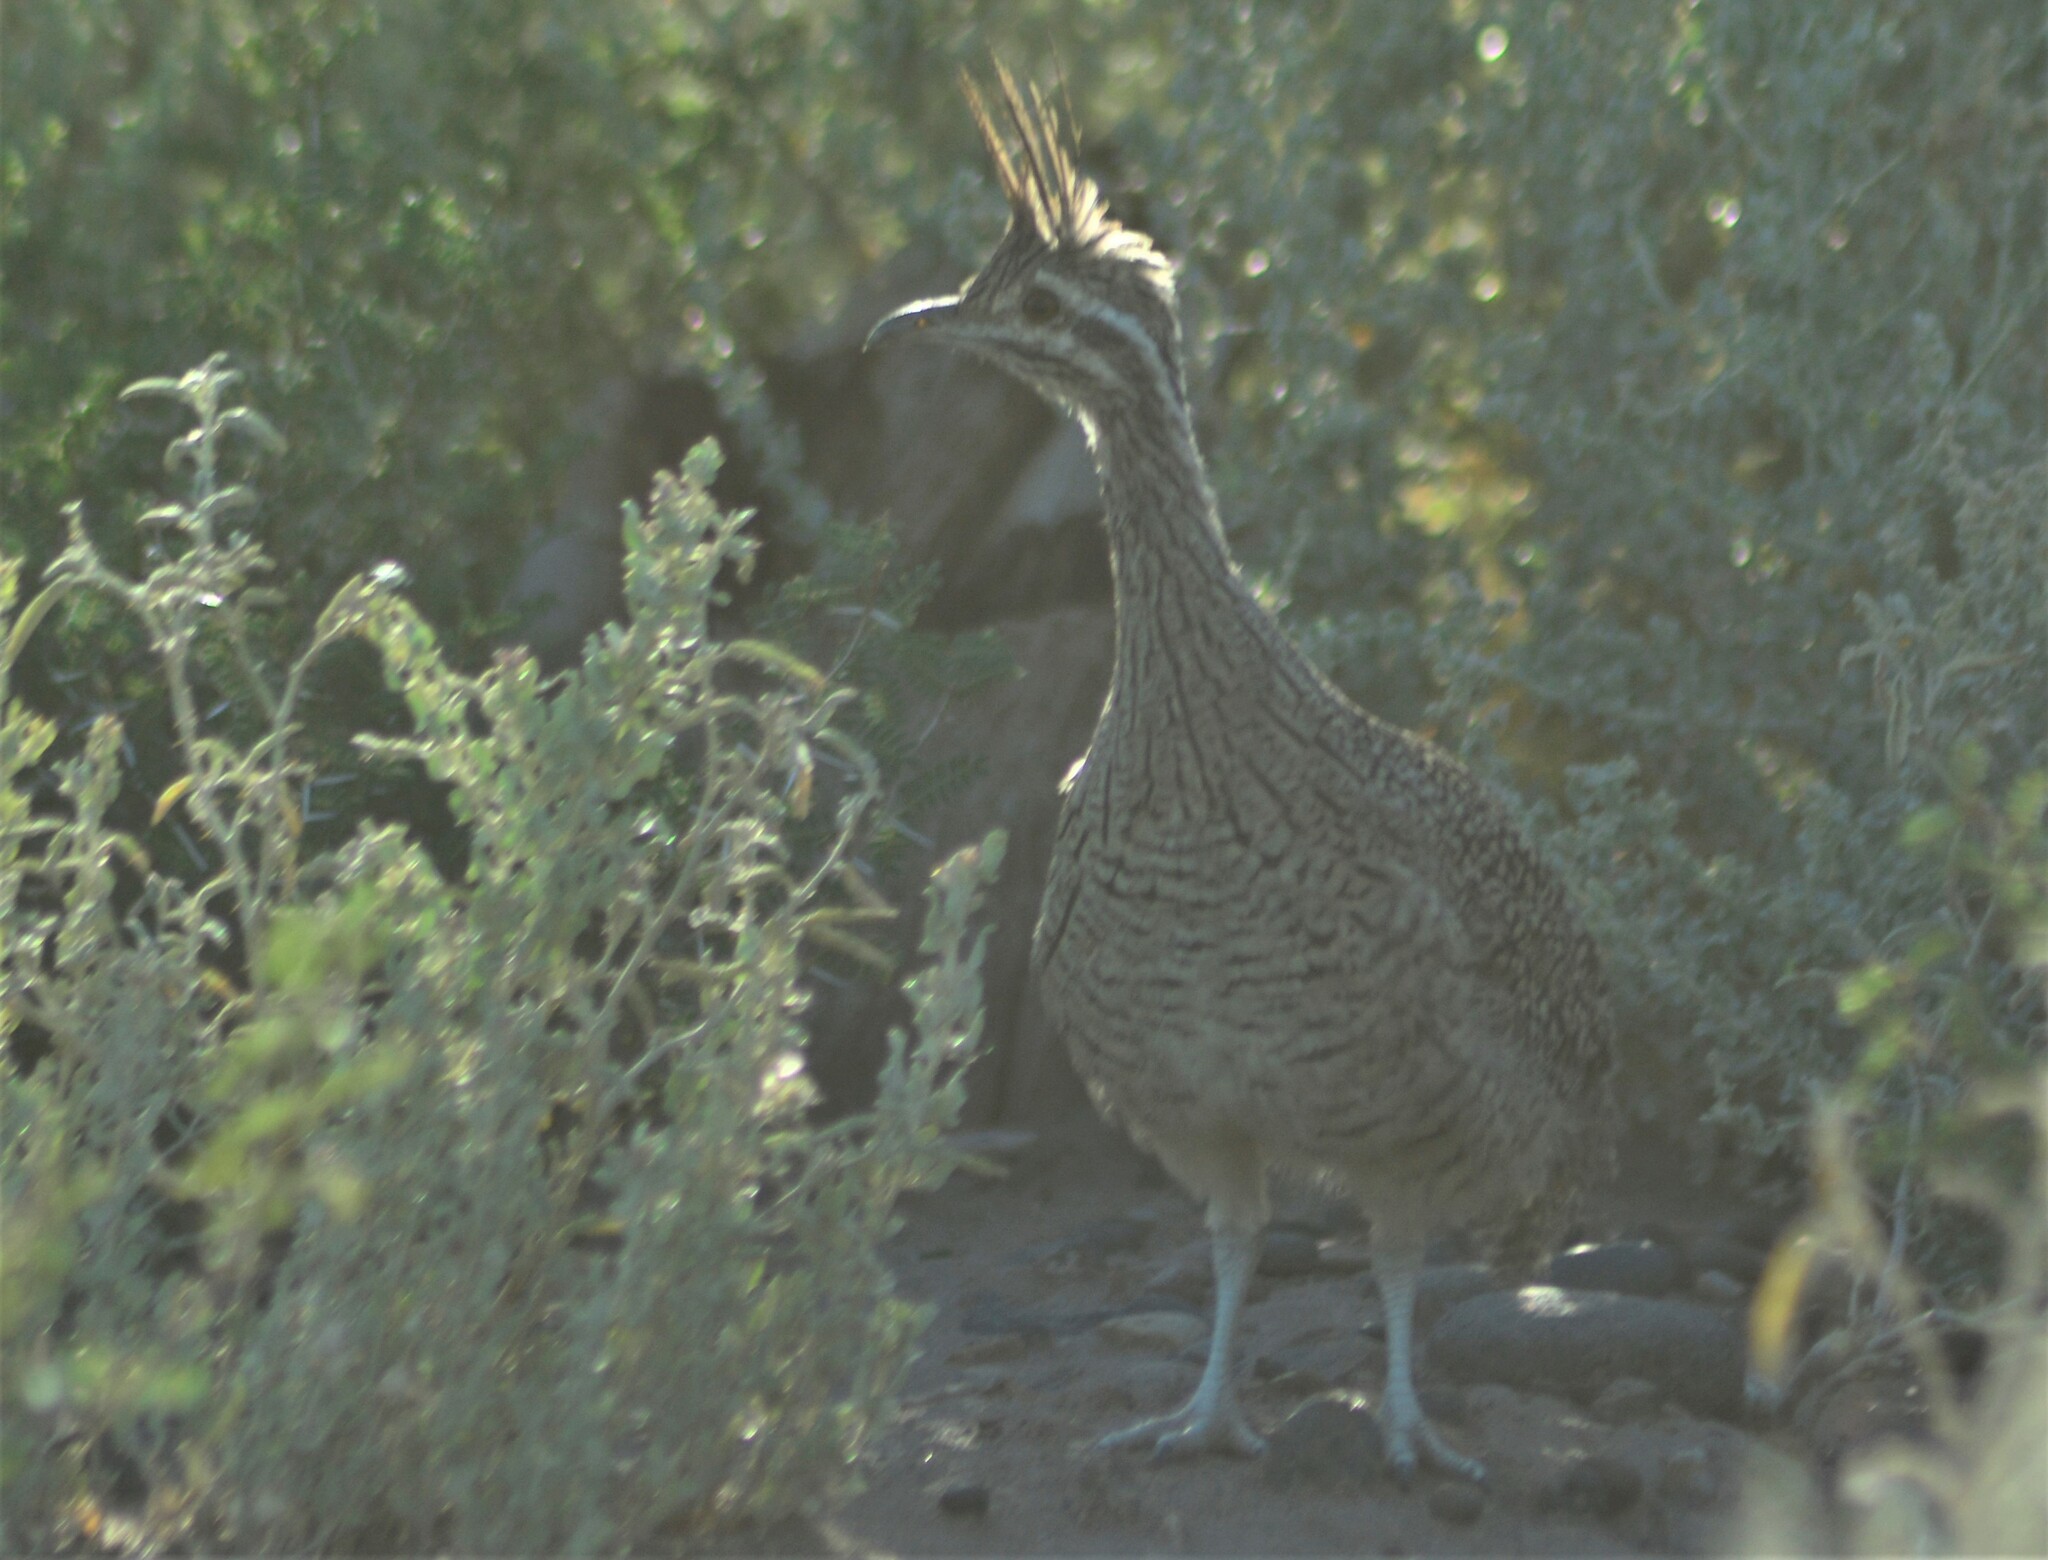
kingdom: Animalia
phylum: Chordata
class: Aves
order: Tinamiformes
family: Tinamidae
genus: Eudromia
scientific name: Eudromia elegans
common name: Elegant crested tinamou
